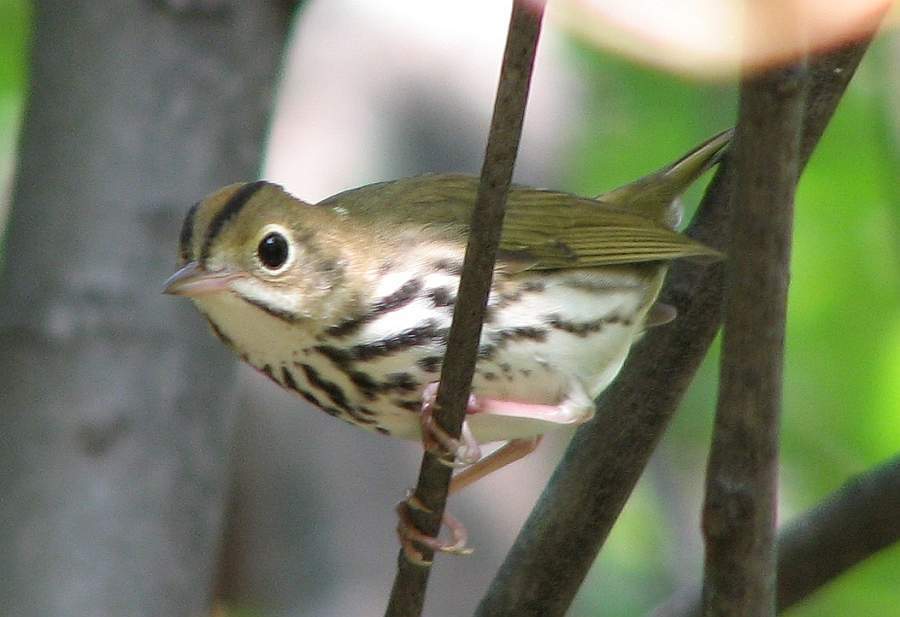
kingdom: Animalia
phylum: Chordata
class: Aves
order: Passeriformes
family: Parulidae
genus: Seiurus
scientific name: Seiurus aurocapilla
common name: Ovenbird
